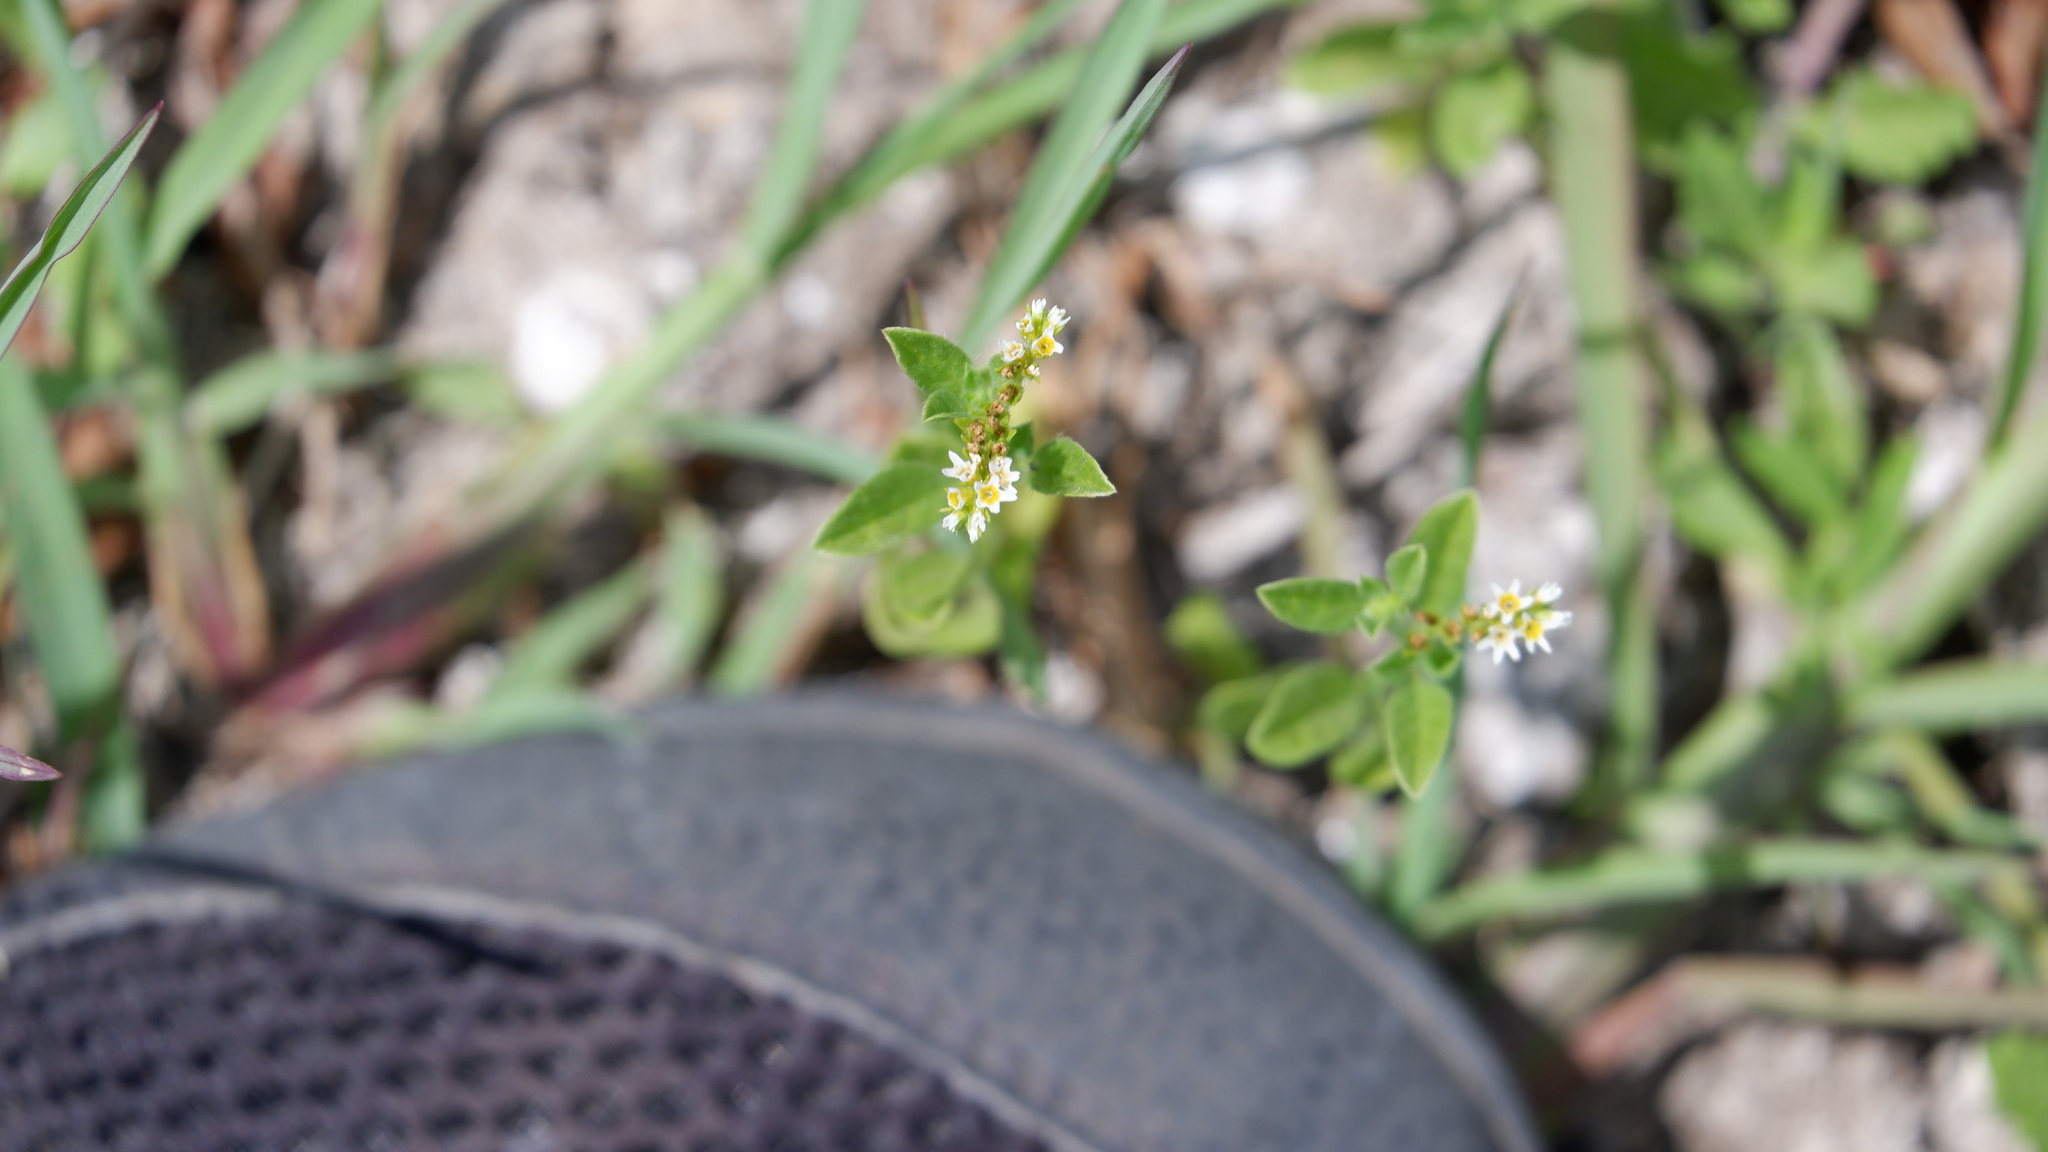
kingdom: Plantae
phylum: Tracheophyta
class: Magnoliopsida
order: Boraginales
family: Heliotropiaceae
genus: Euploca
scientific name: Euploca procumbens
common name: Fourspike heliotrope
